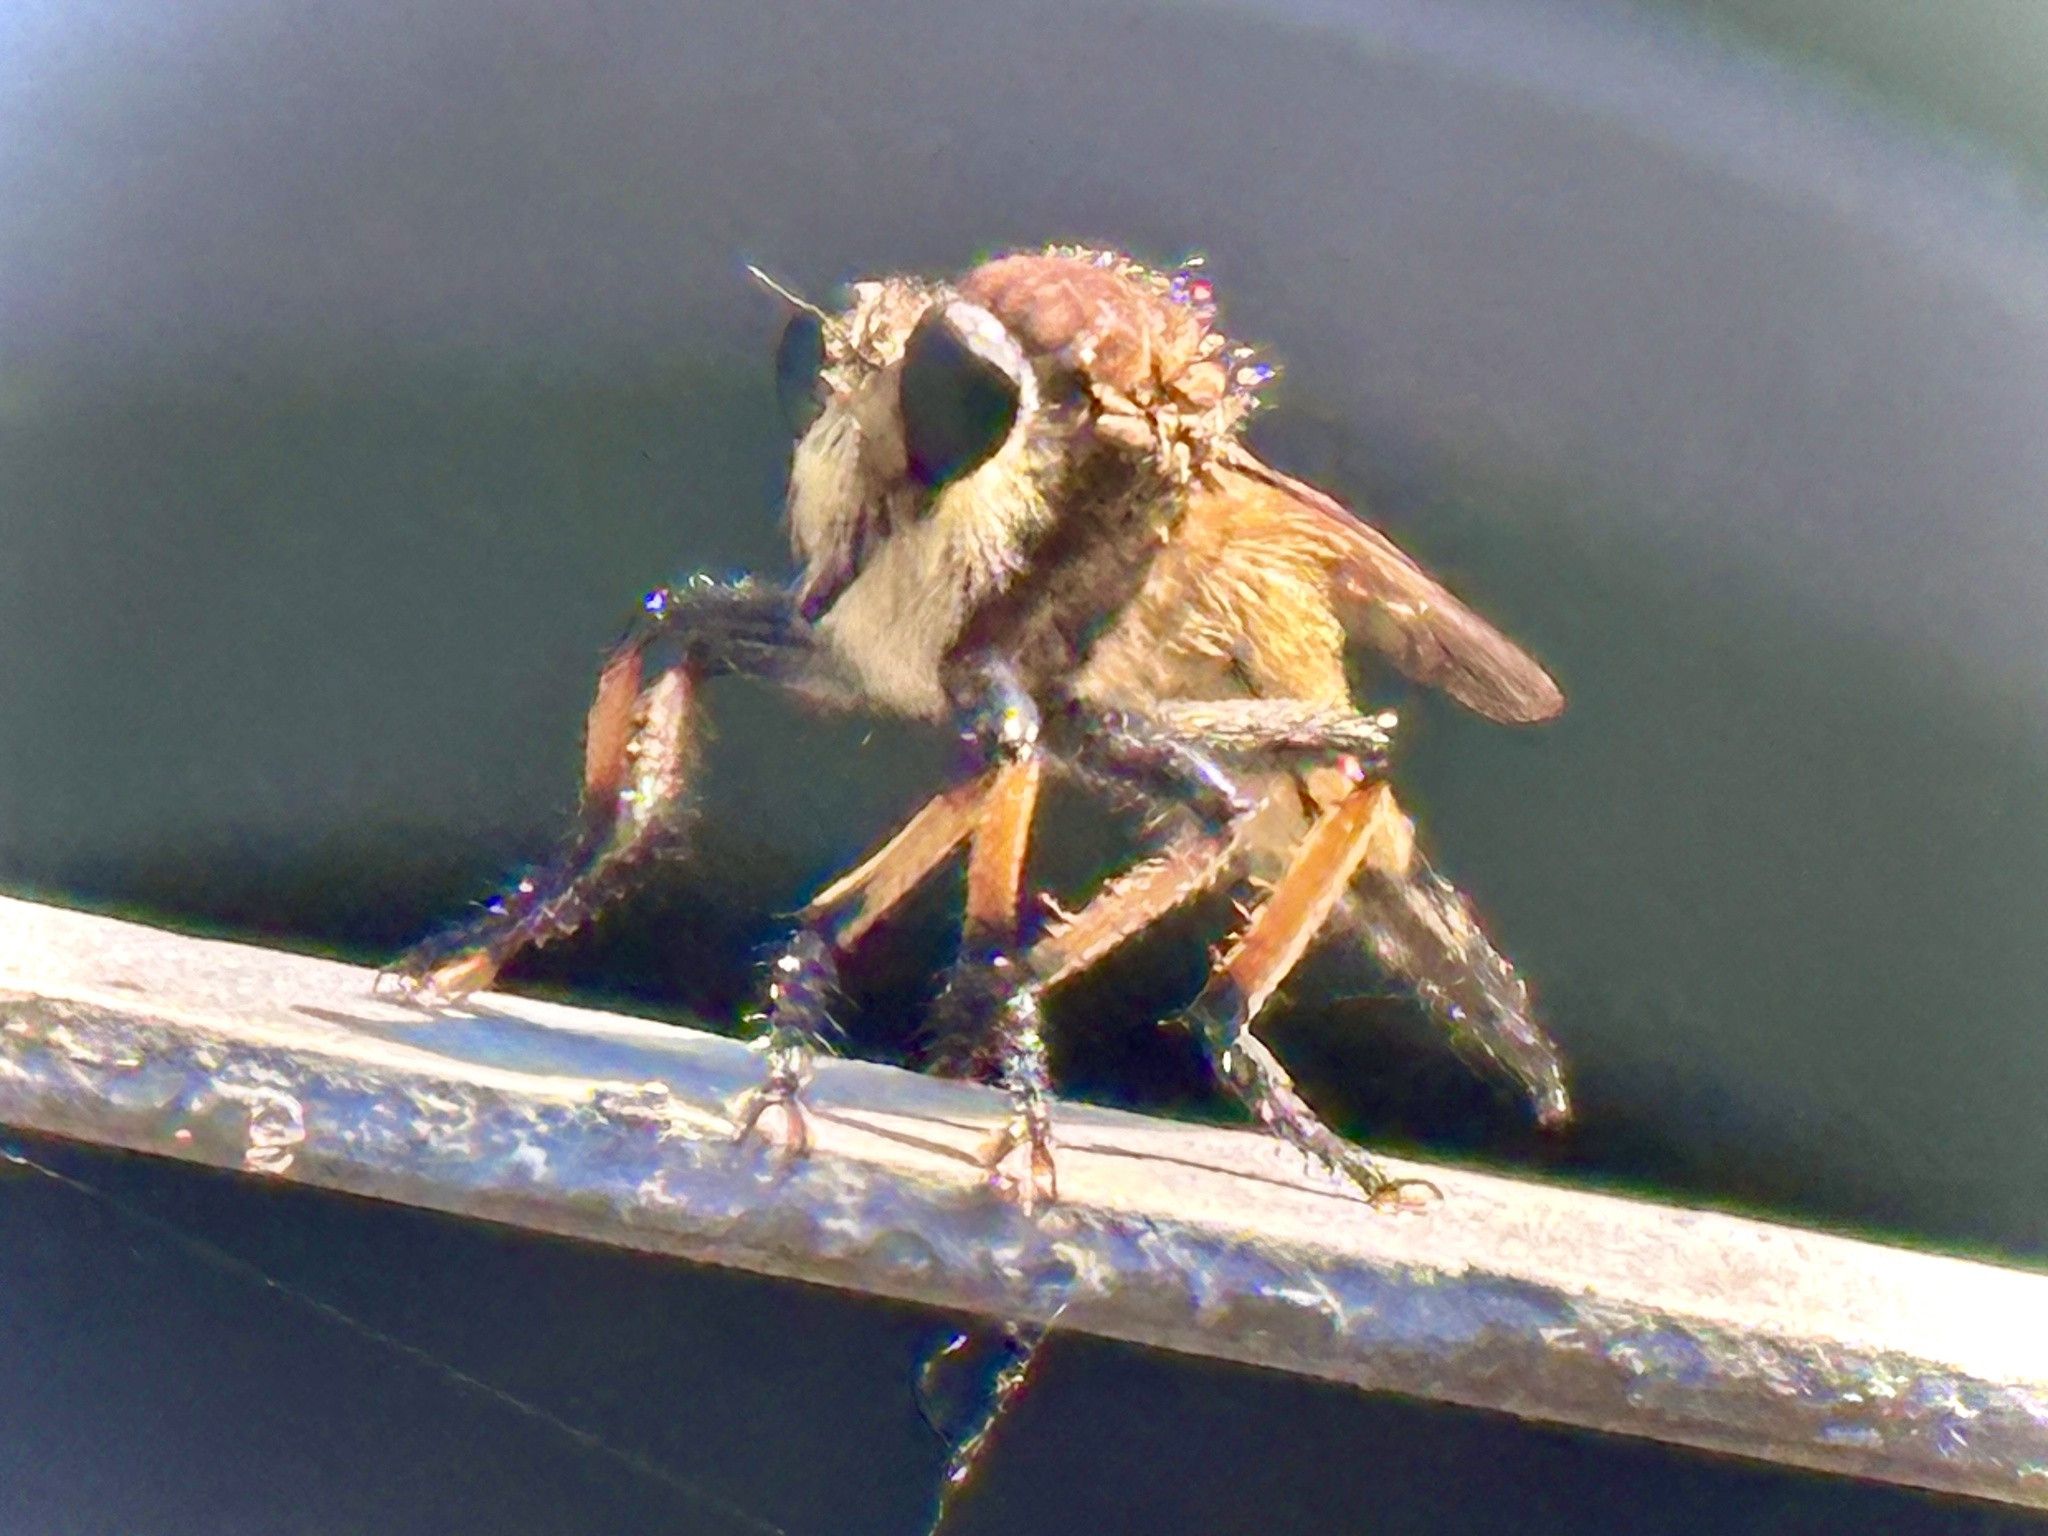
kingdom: Animalia
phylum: Arthropoda
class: Insecta
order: Diptera
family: Asilidae
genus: Promachus
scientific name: Promachus rufipes
